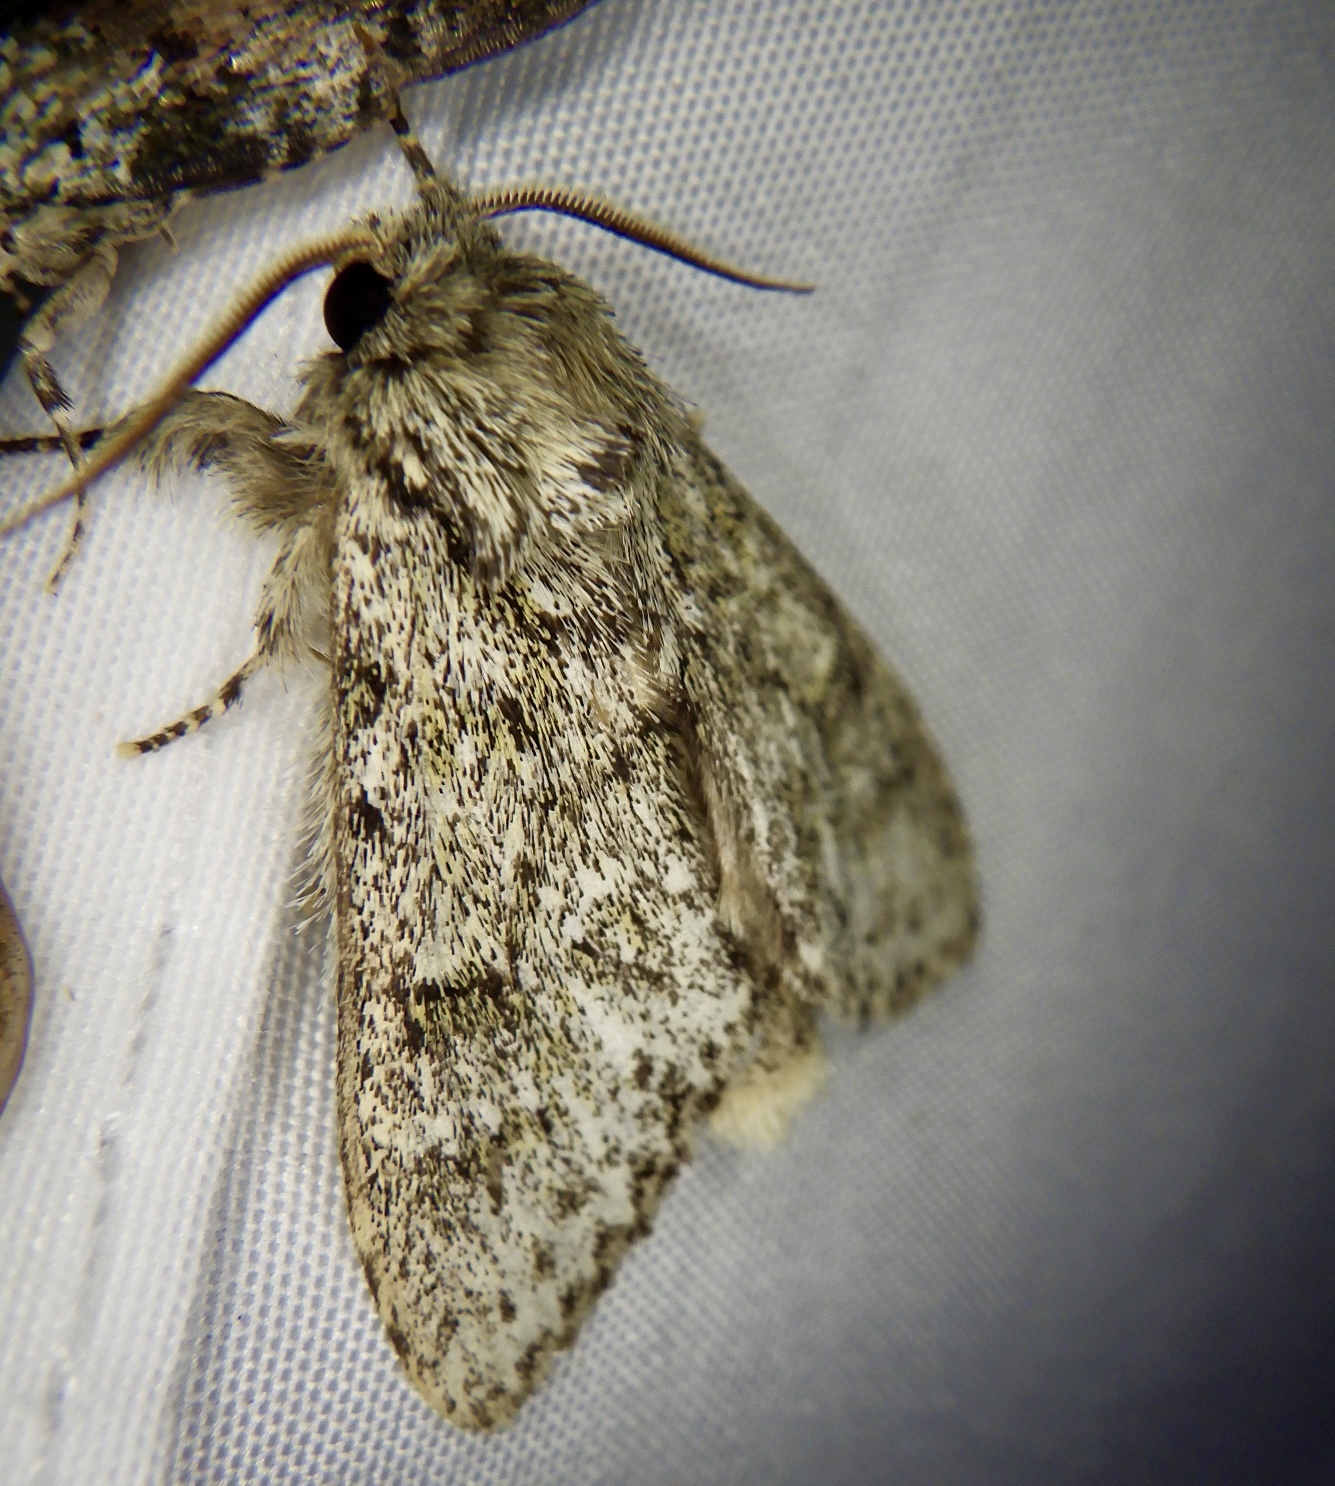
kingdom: Animalia
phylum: Arthropoda
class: Insecta
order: Lepidoptera
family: Notodontidae
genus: Pheosiopsis
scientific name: Pheosiopsis olivacea
